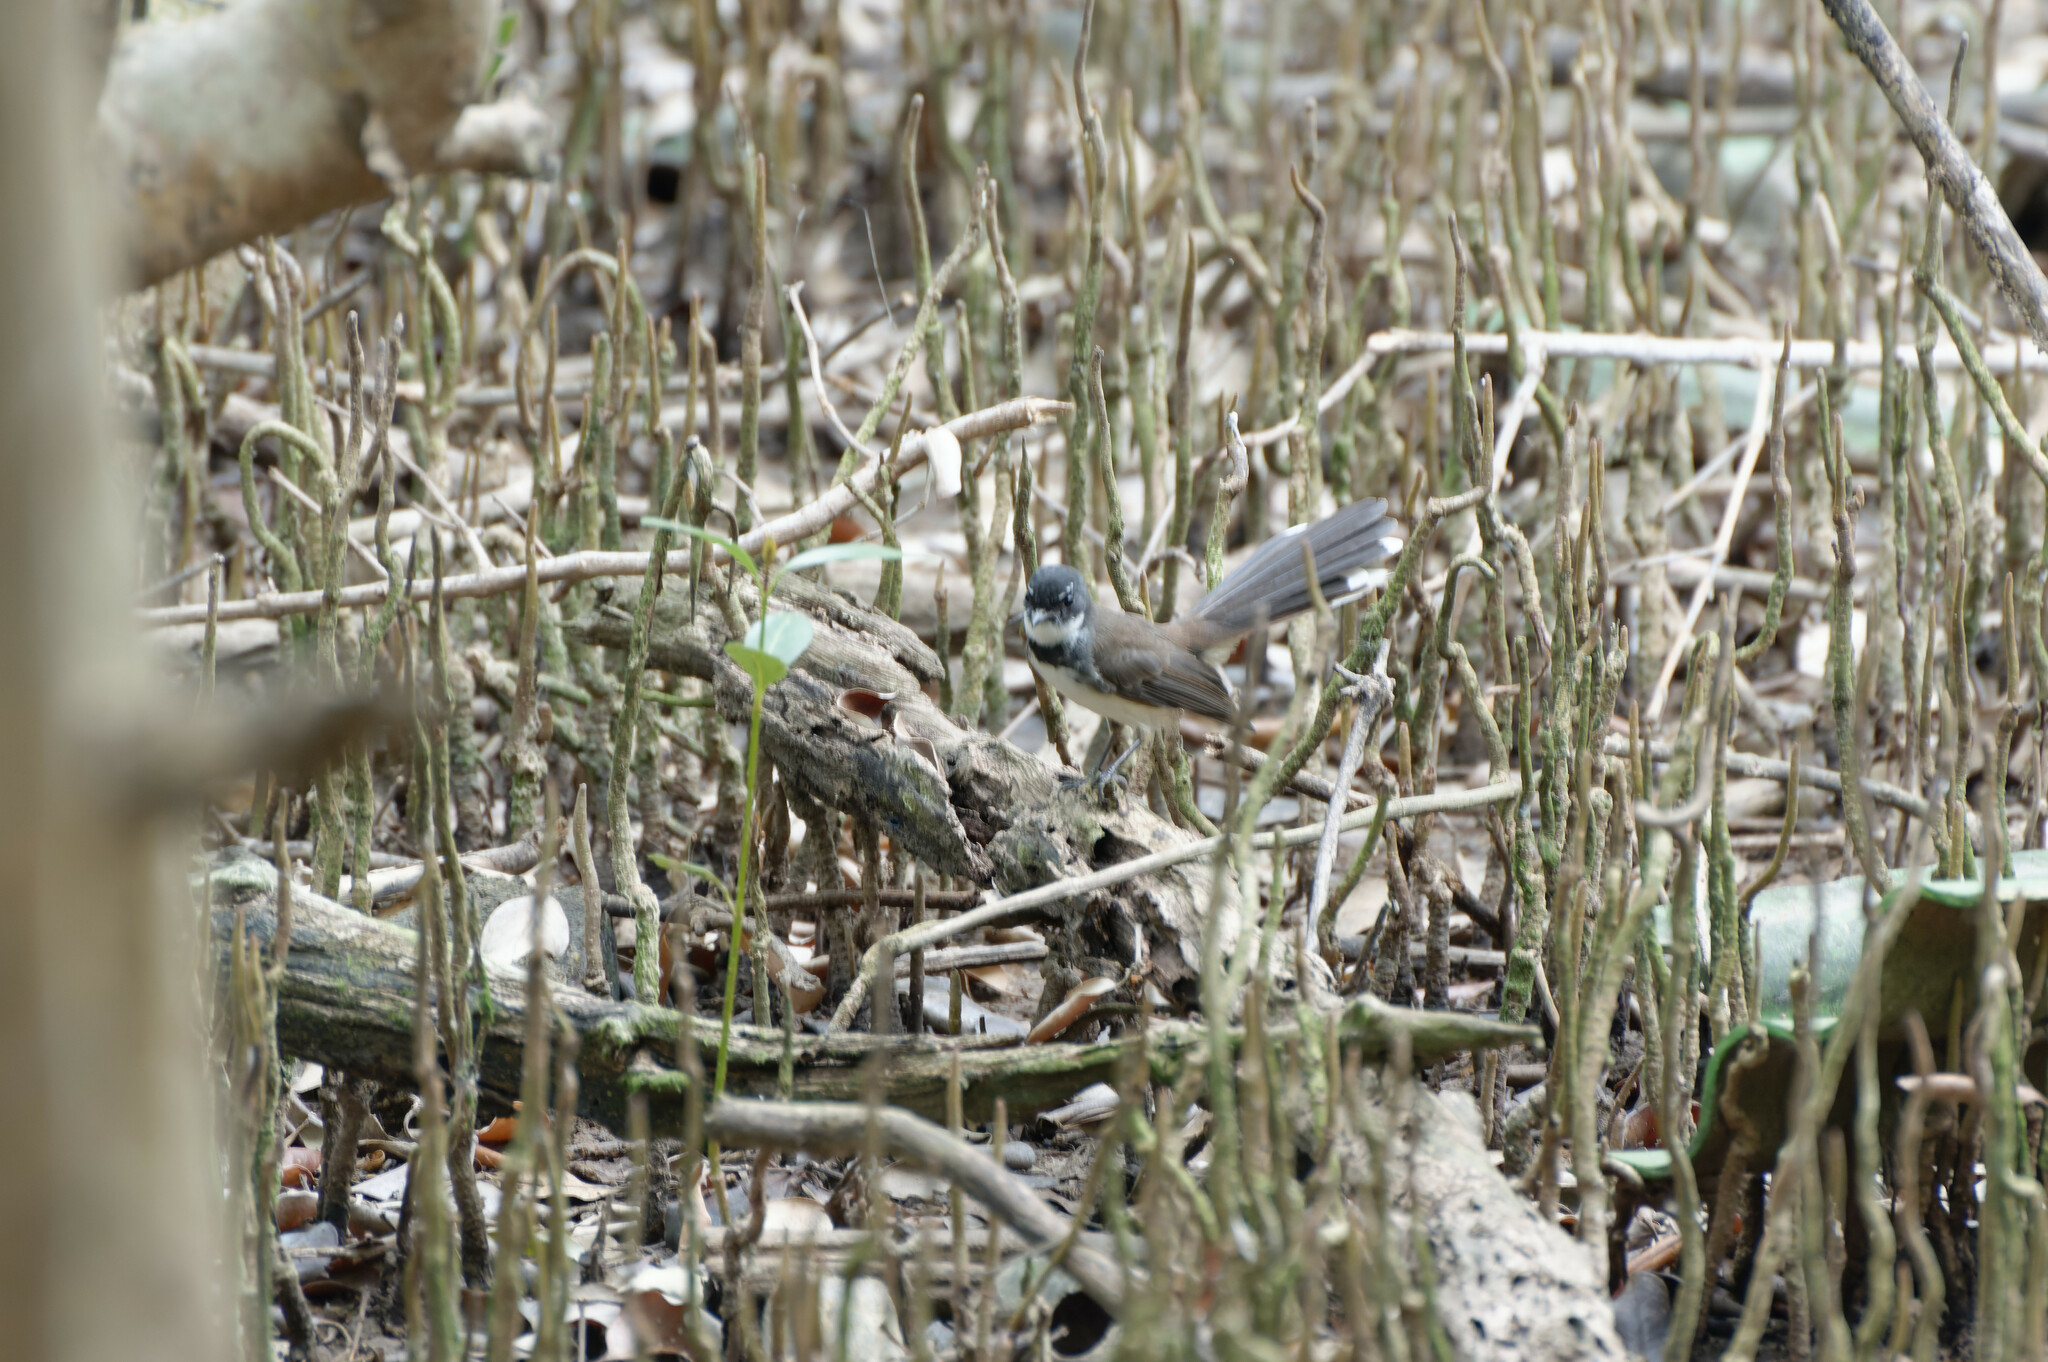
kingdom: Animalia
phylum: Chordata
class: Aves
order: Passeriformes
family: Rhipiduridae
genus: Rhipidura
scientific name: Rhipidura javanica
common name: Pied fantail
